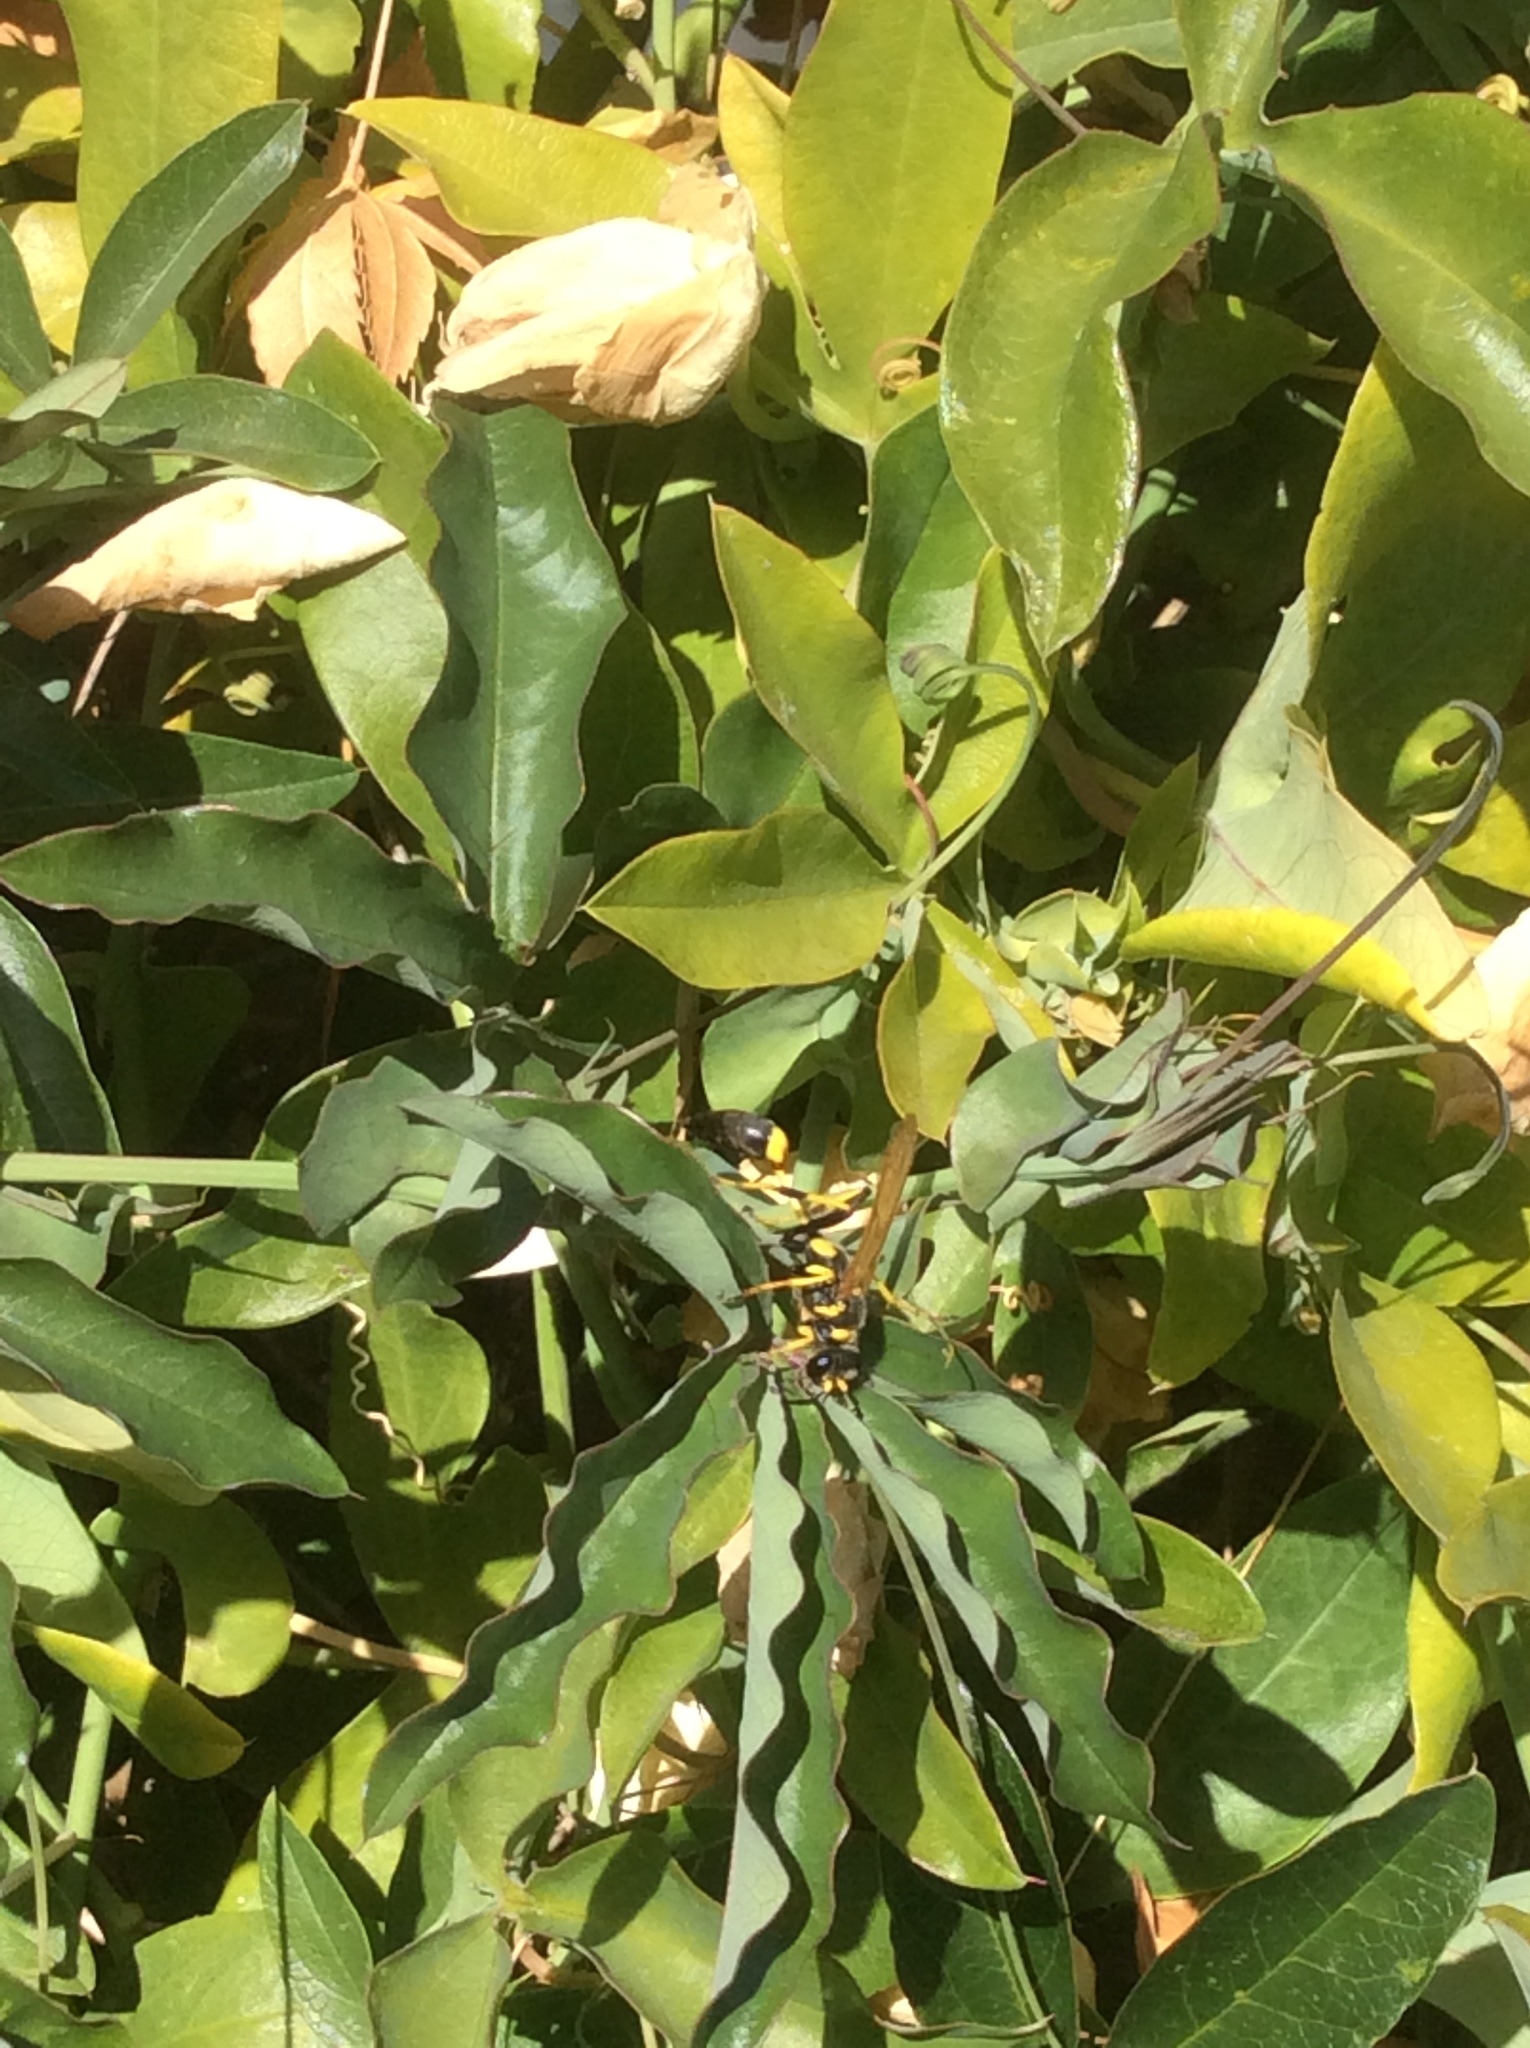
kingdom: Animalia
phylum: Arthropoda
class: Insecta
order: Hymenoptera
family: Sphecidae
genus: Sceliphron
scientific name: Sceliphron caementarium
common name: Mud dauber
